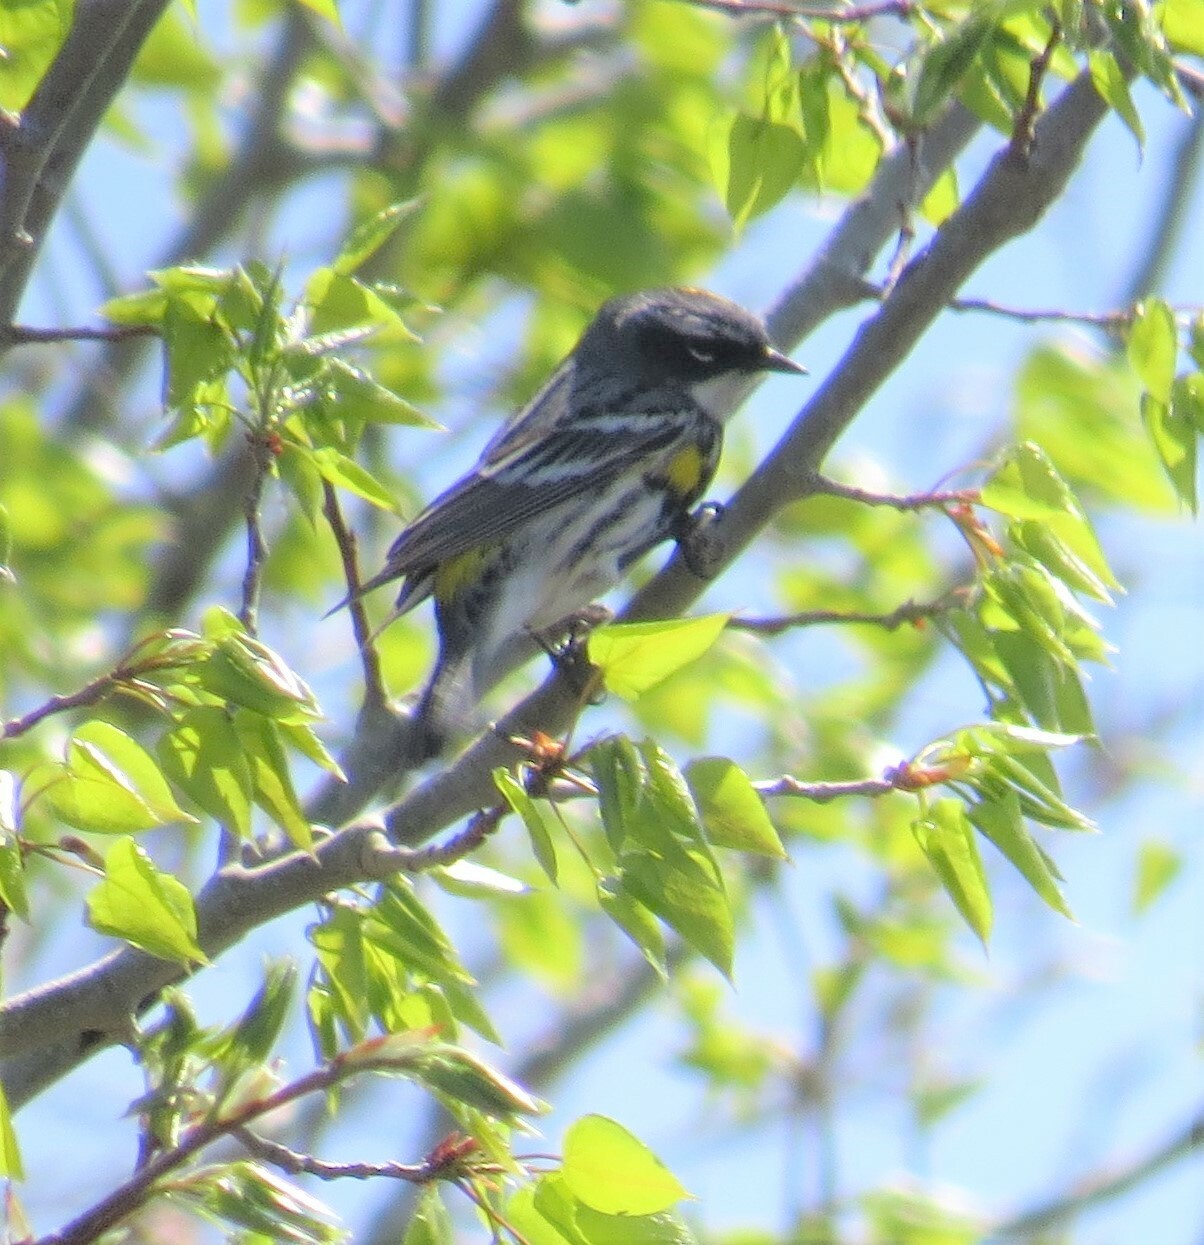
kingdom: Animalia
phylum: Chordata
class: Aves
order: Passeriformes
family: Parulidae
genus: Setophaga
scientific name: Setophaga coronata
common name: Myrtle warbler
